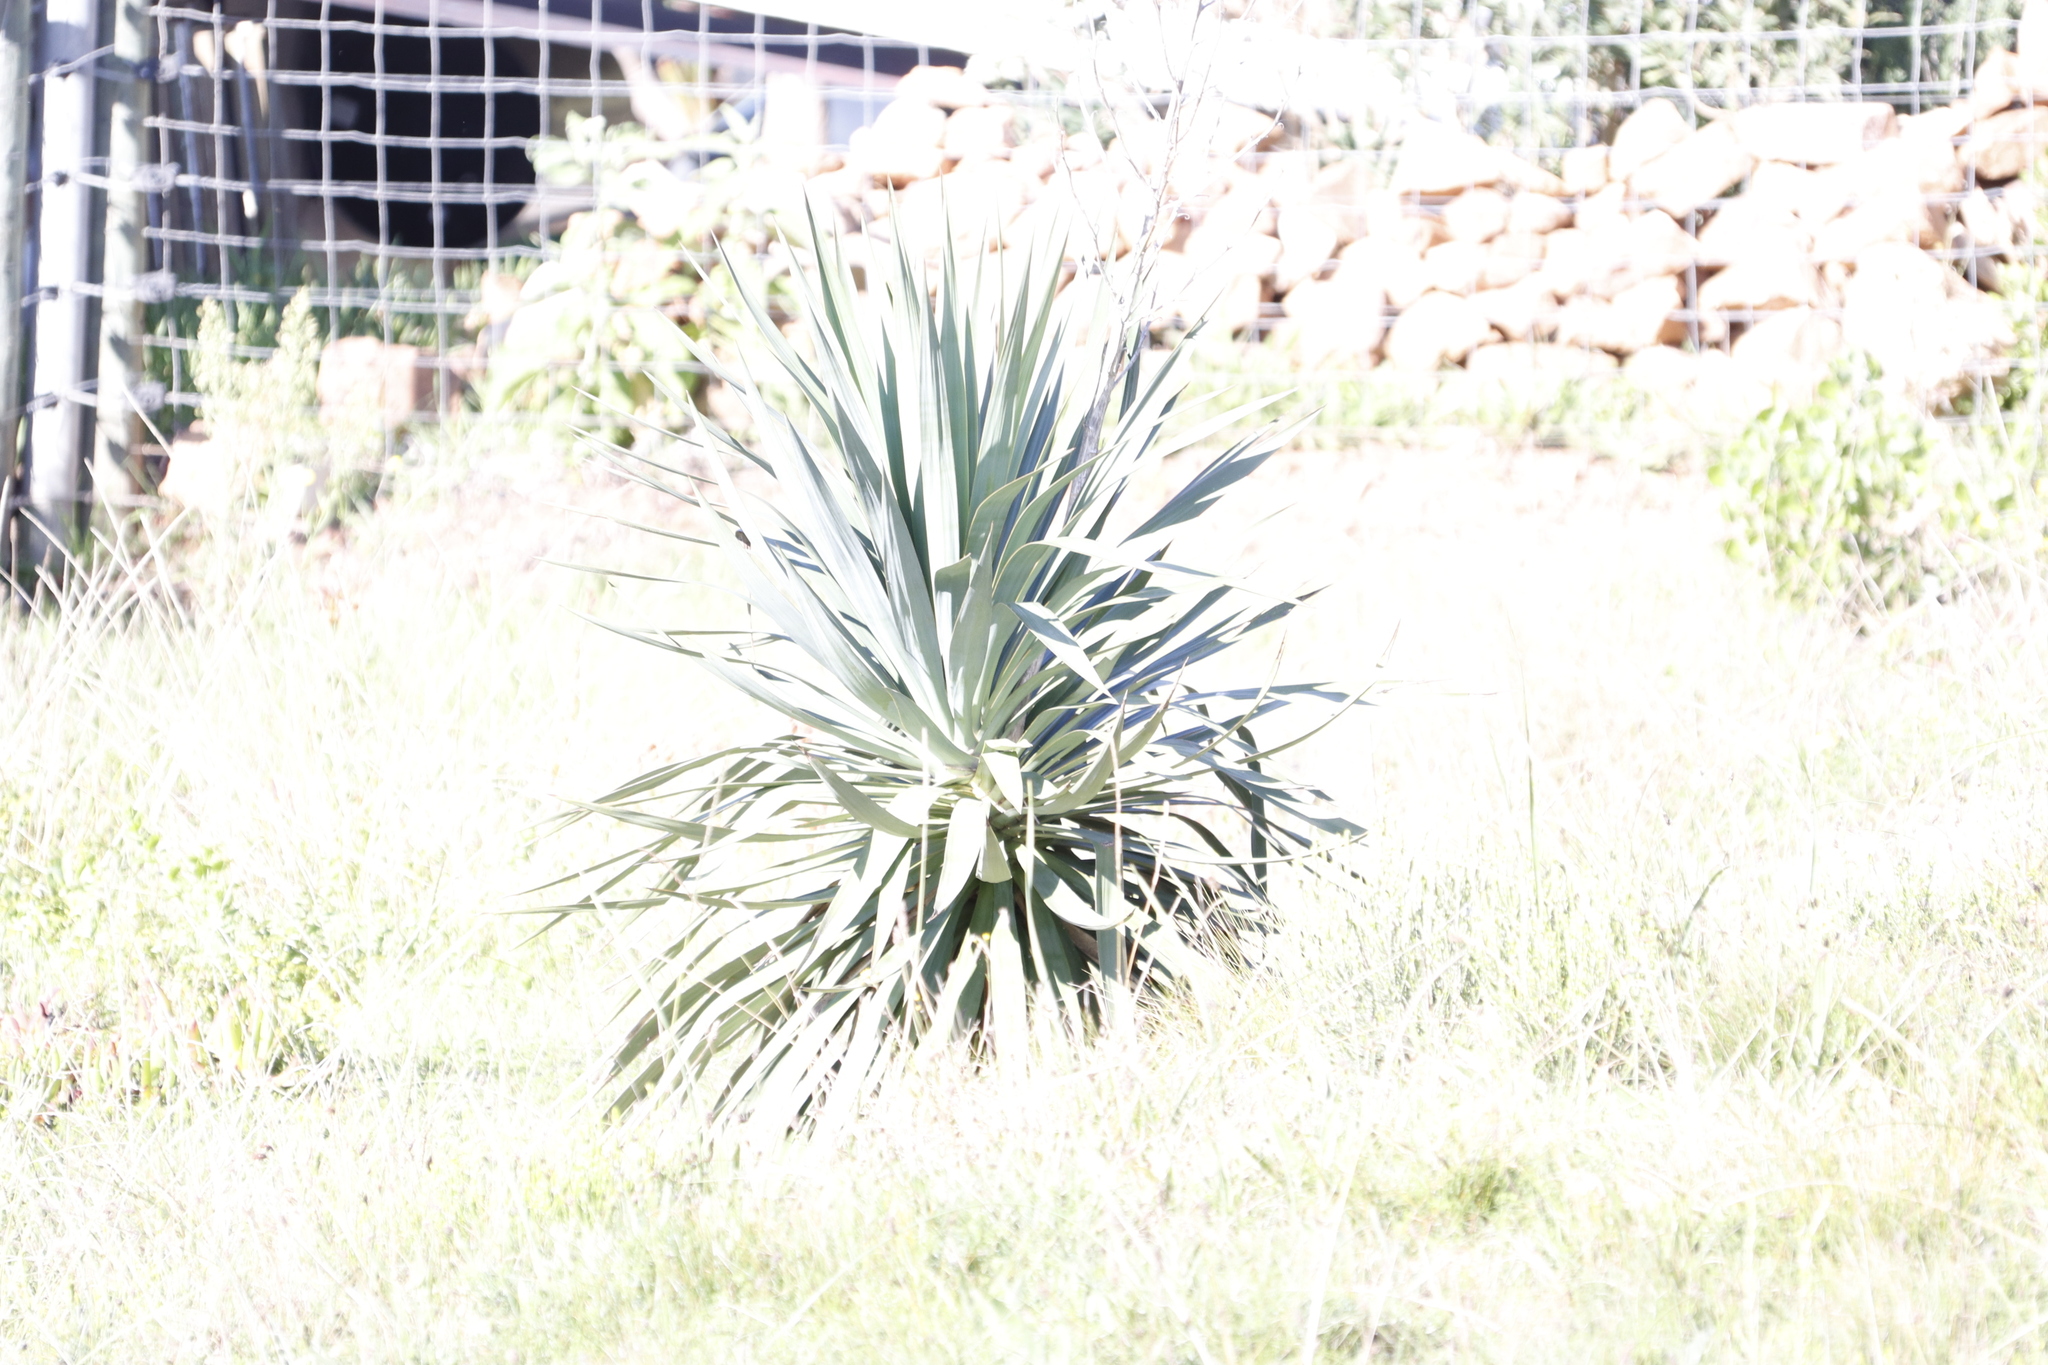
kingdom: Plantae
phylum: Tracheophyta
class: Liliopsida
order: Asparagales
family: Asparagaceae
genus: Yucca
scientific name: Yucca gloriosa
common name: Spanish-dagger
